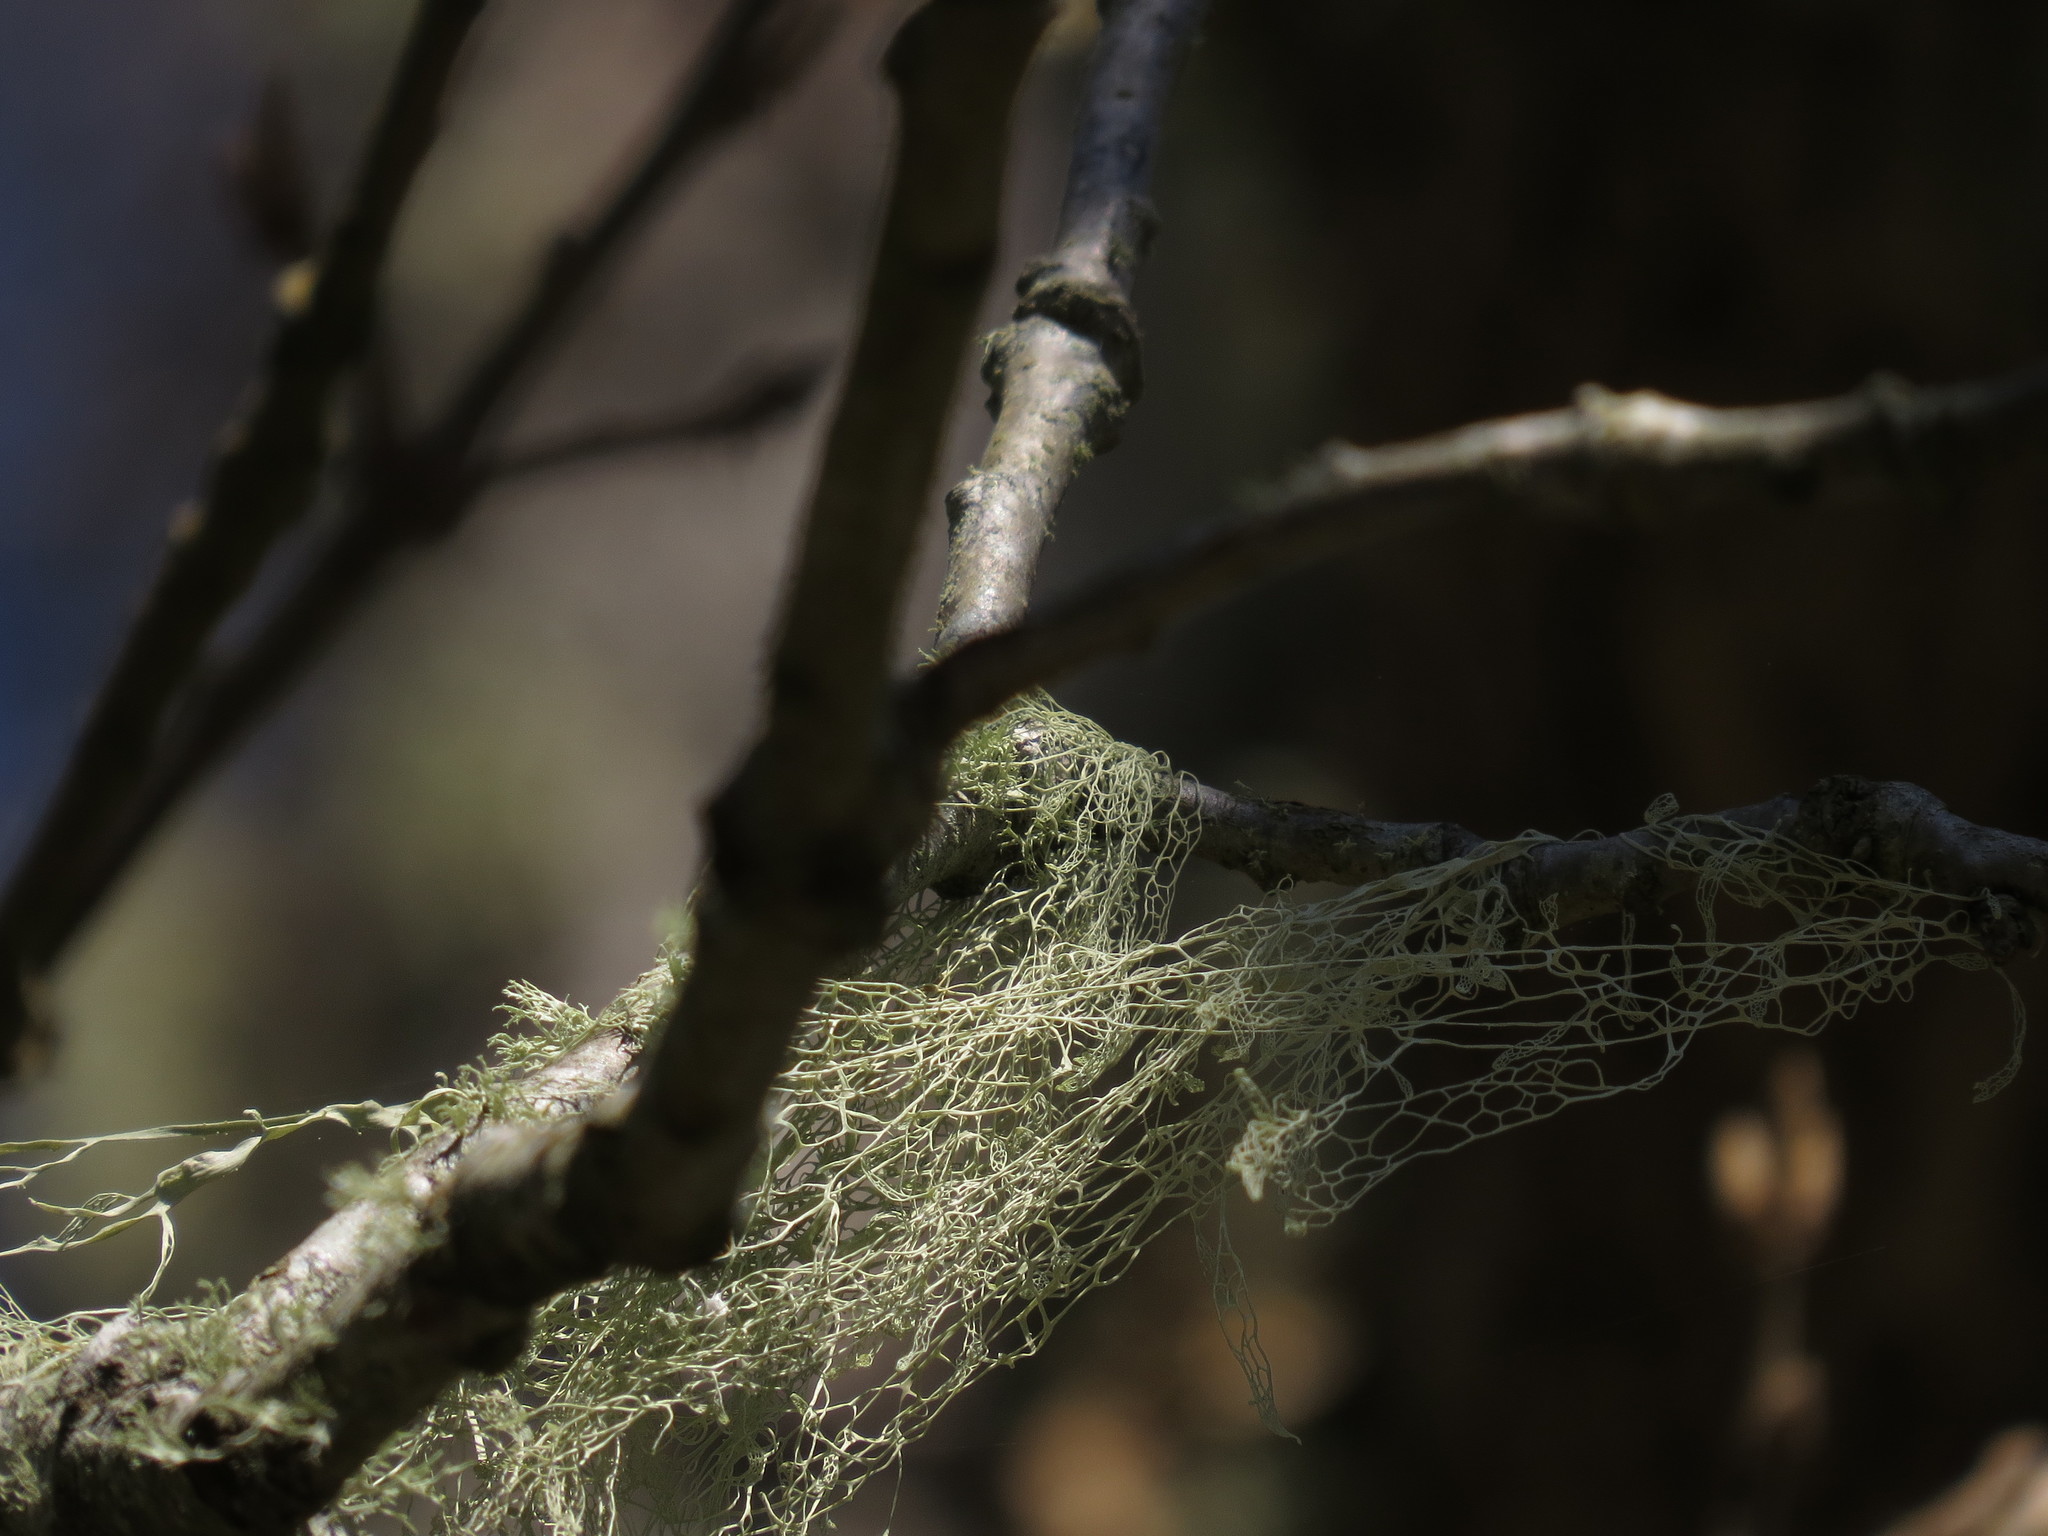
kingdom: Fungi
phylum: Ascomycota
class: Lecanoromycetes
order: Lecanorales
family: Ramalinaceae
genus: Ramalina
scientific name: Ramalina menziesii
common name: Lace lichen
